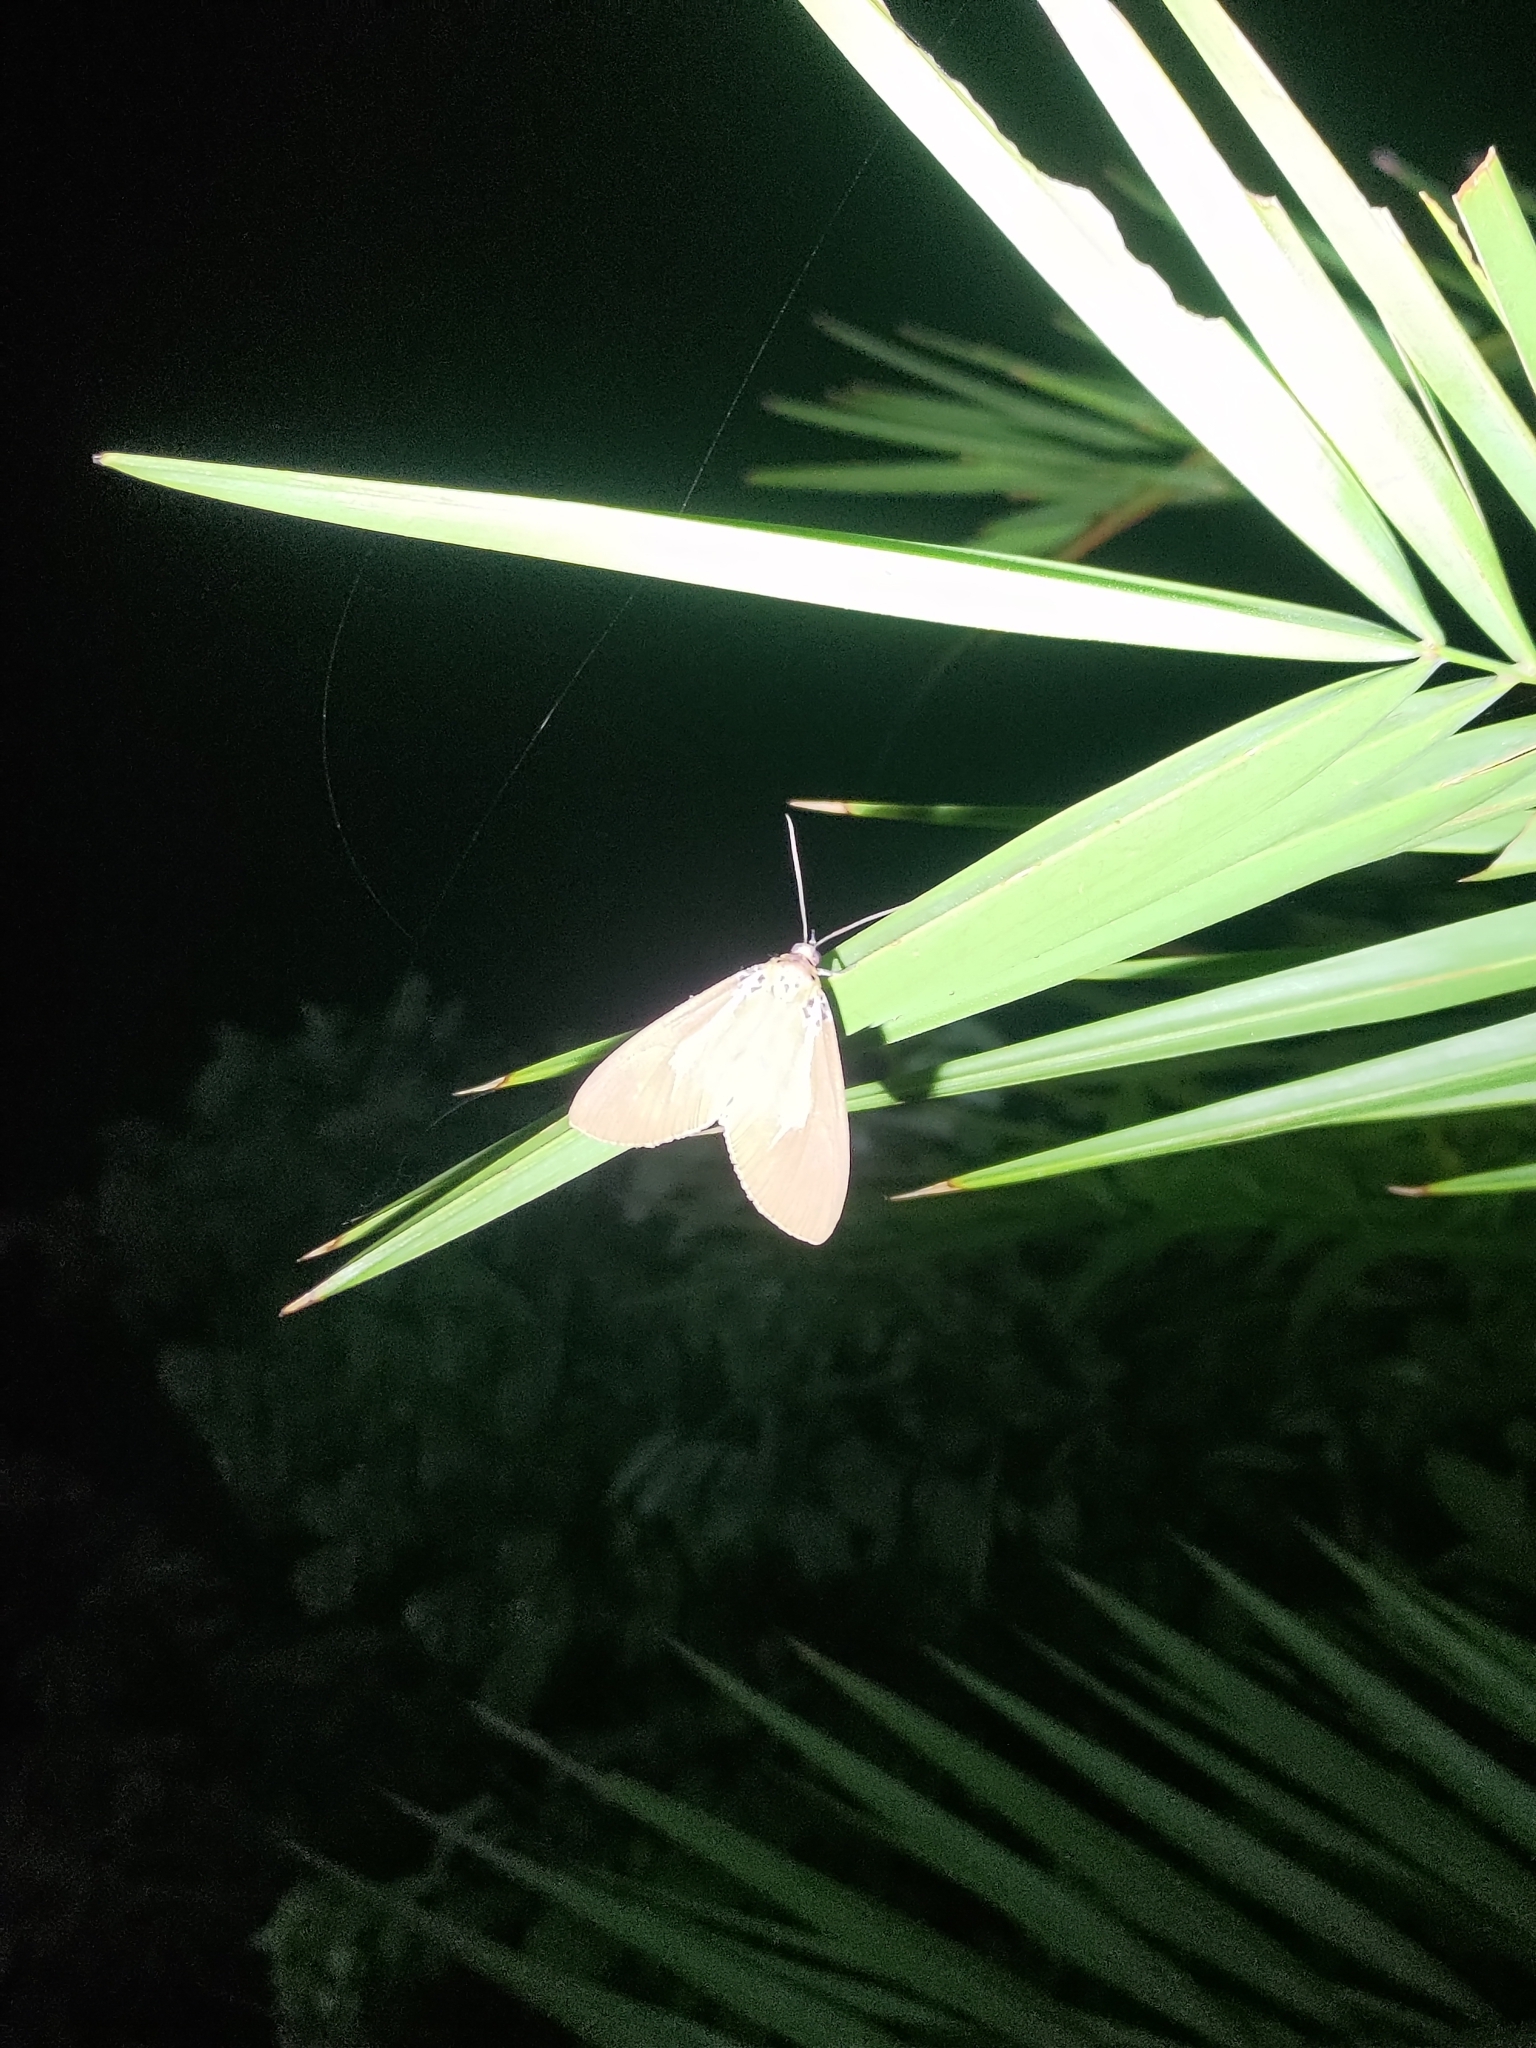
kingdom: Animalia
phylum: Arthropoda
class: Insecta
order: Lepidoptera
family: Erebidae
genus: Asota
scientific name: Asota heliconia
